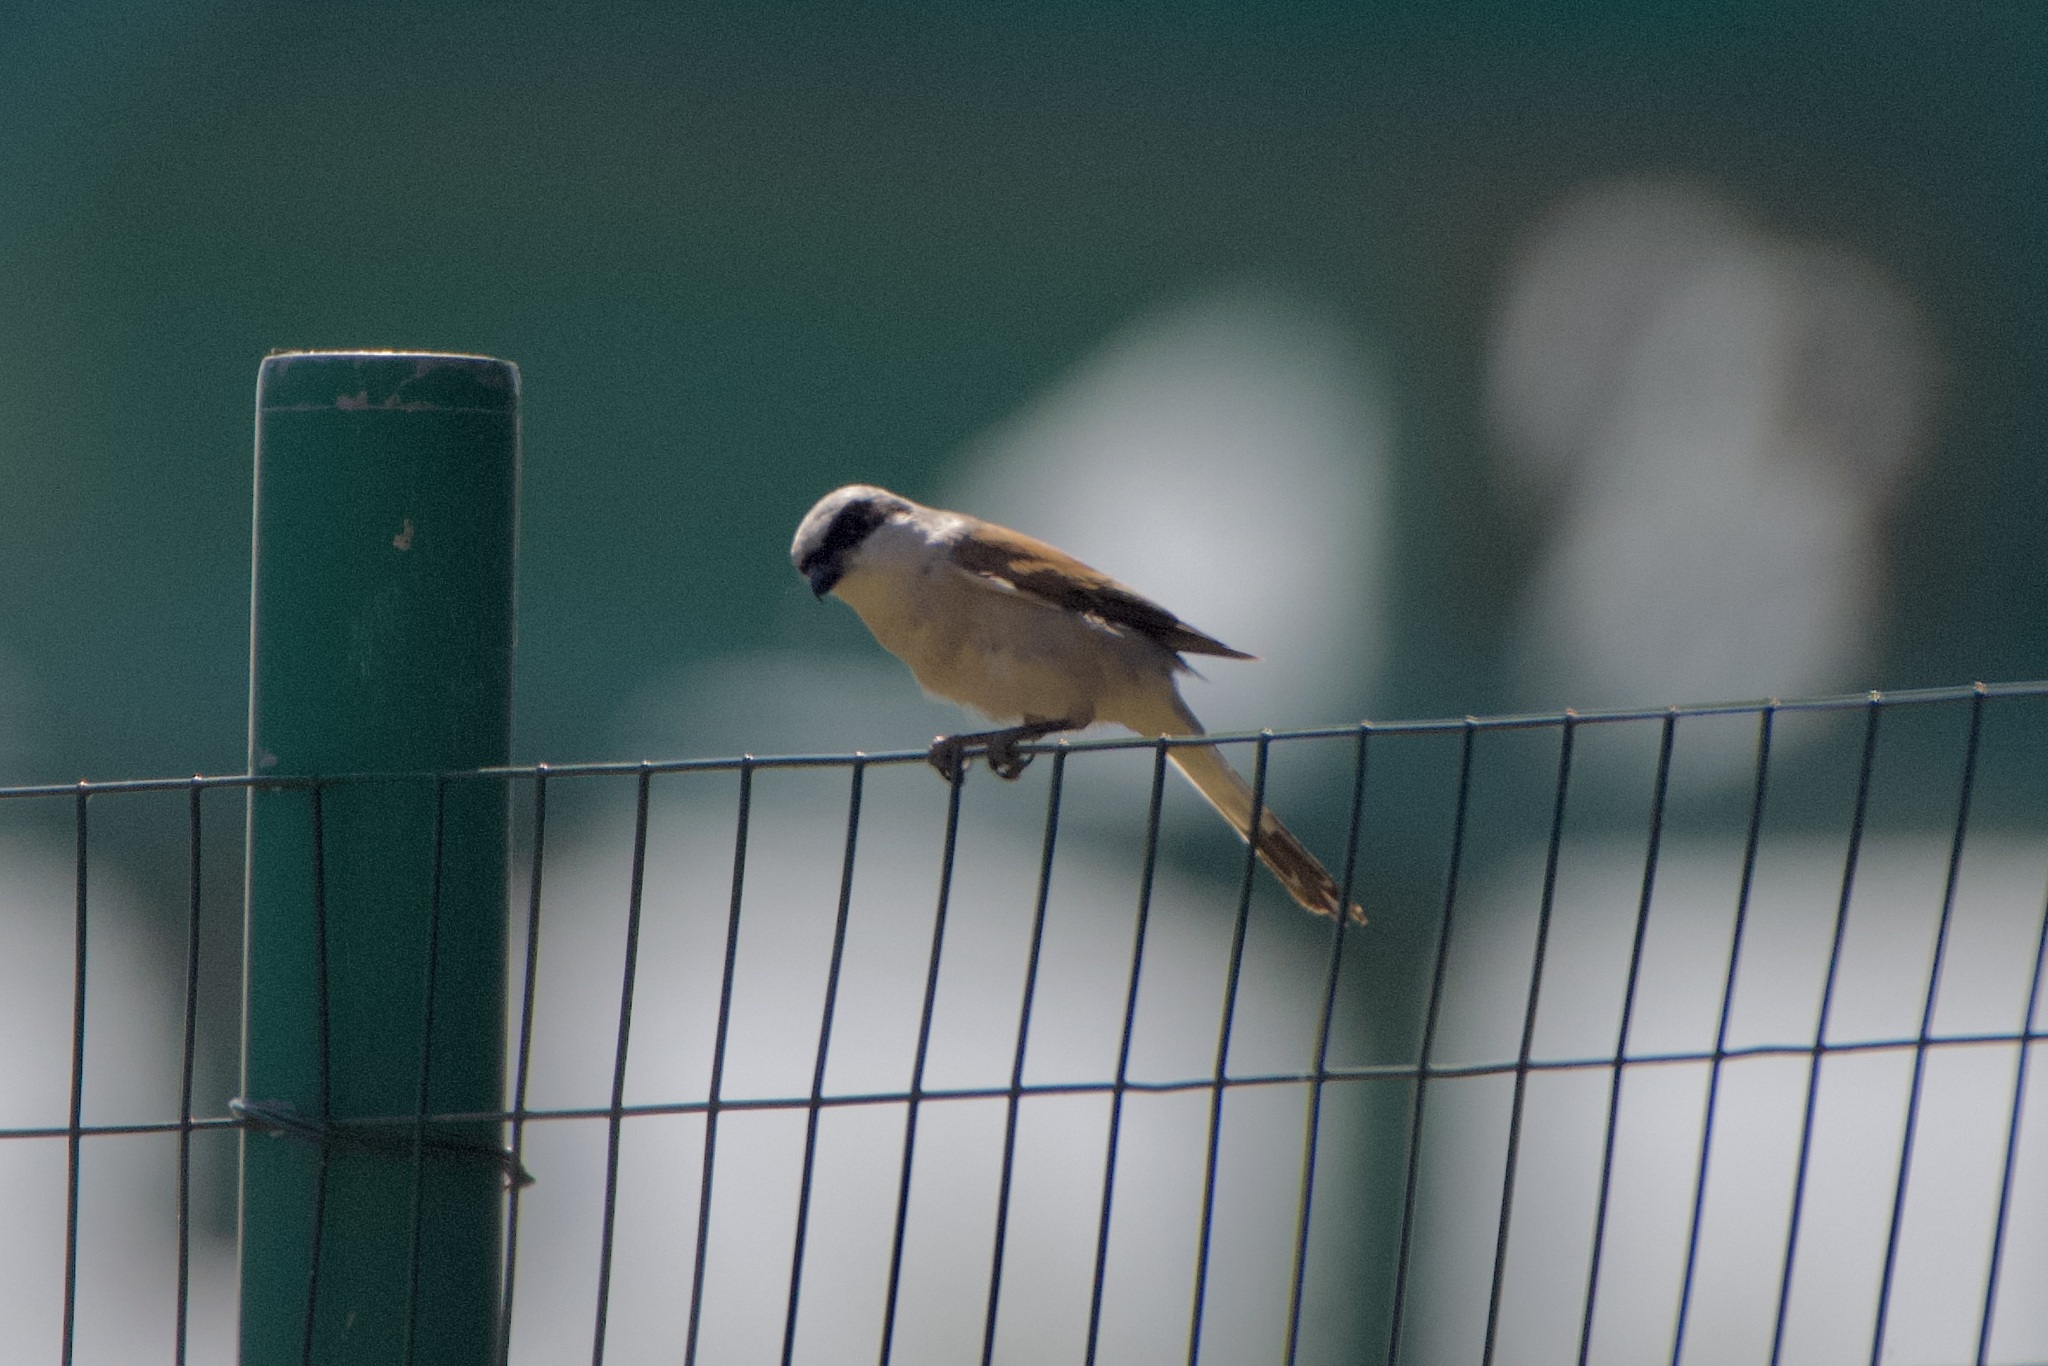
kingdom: Animalia
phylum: Chordata
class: Aves
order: Passeriformes
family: Laniidae
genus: Lanius
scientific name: Lanius collurio
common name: Red-backed shrike
